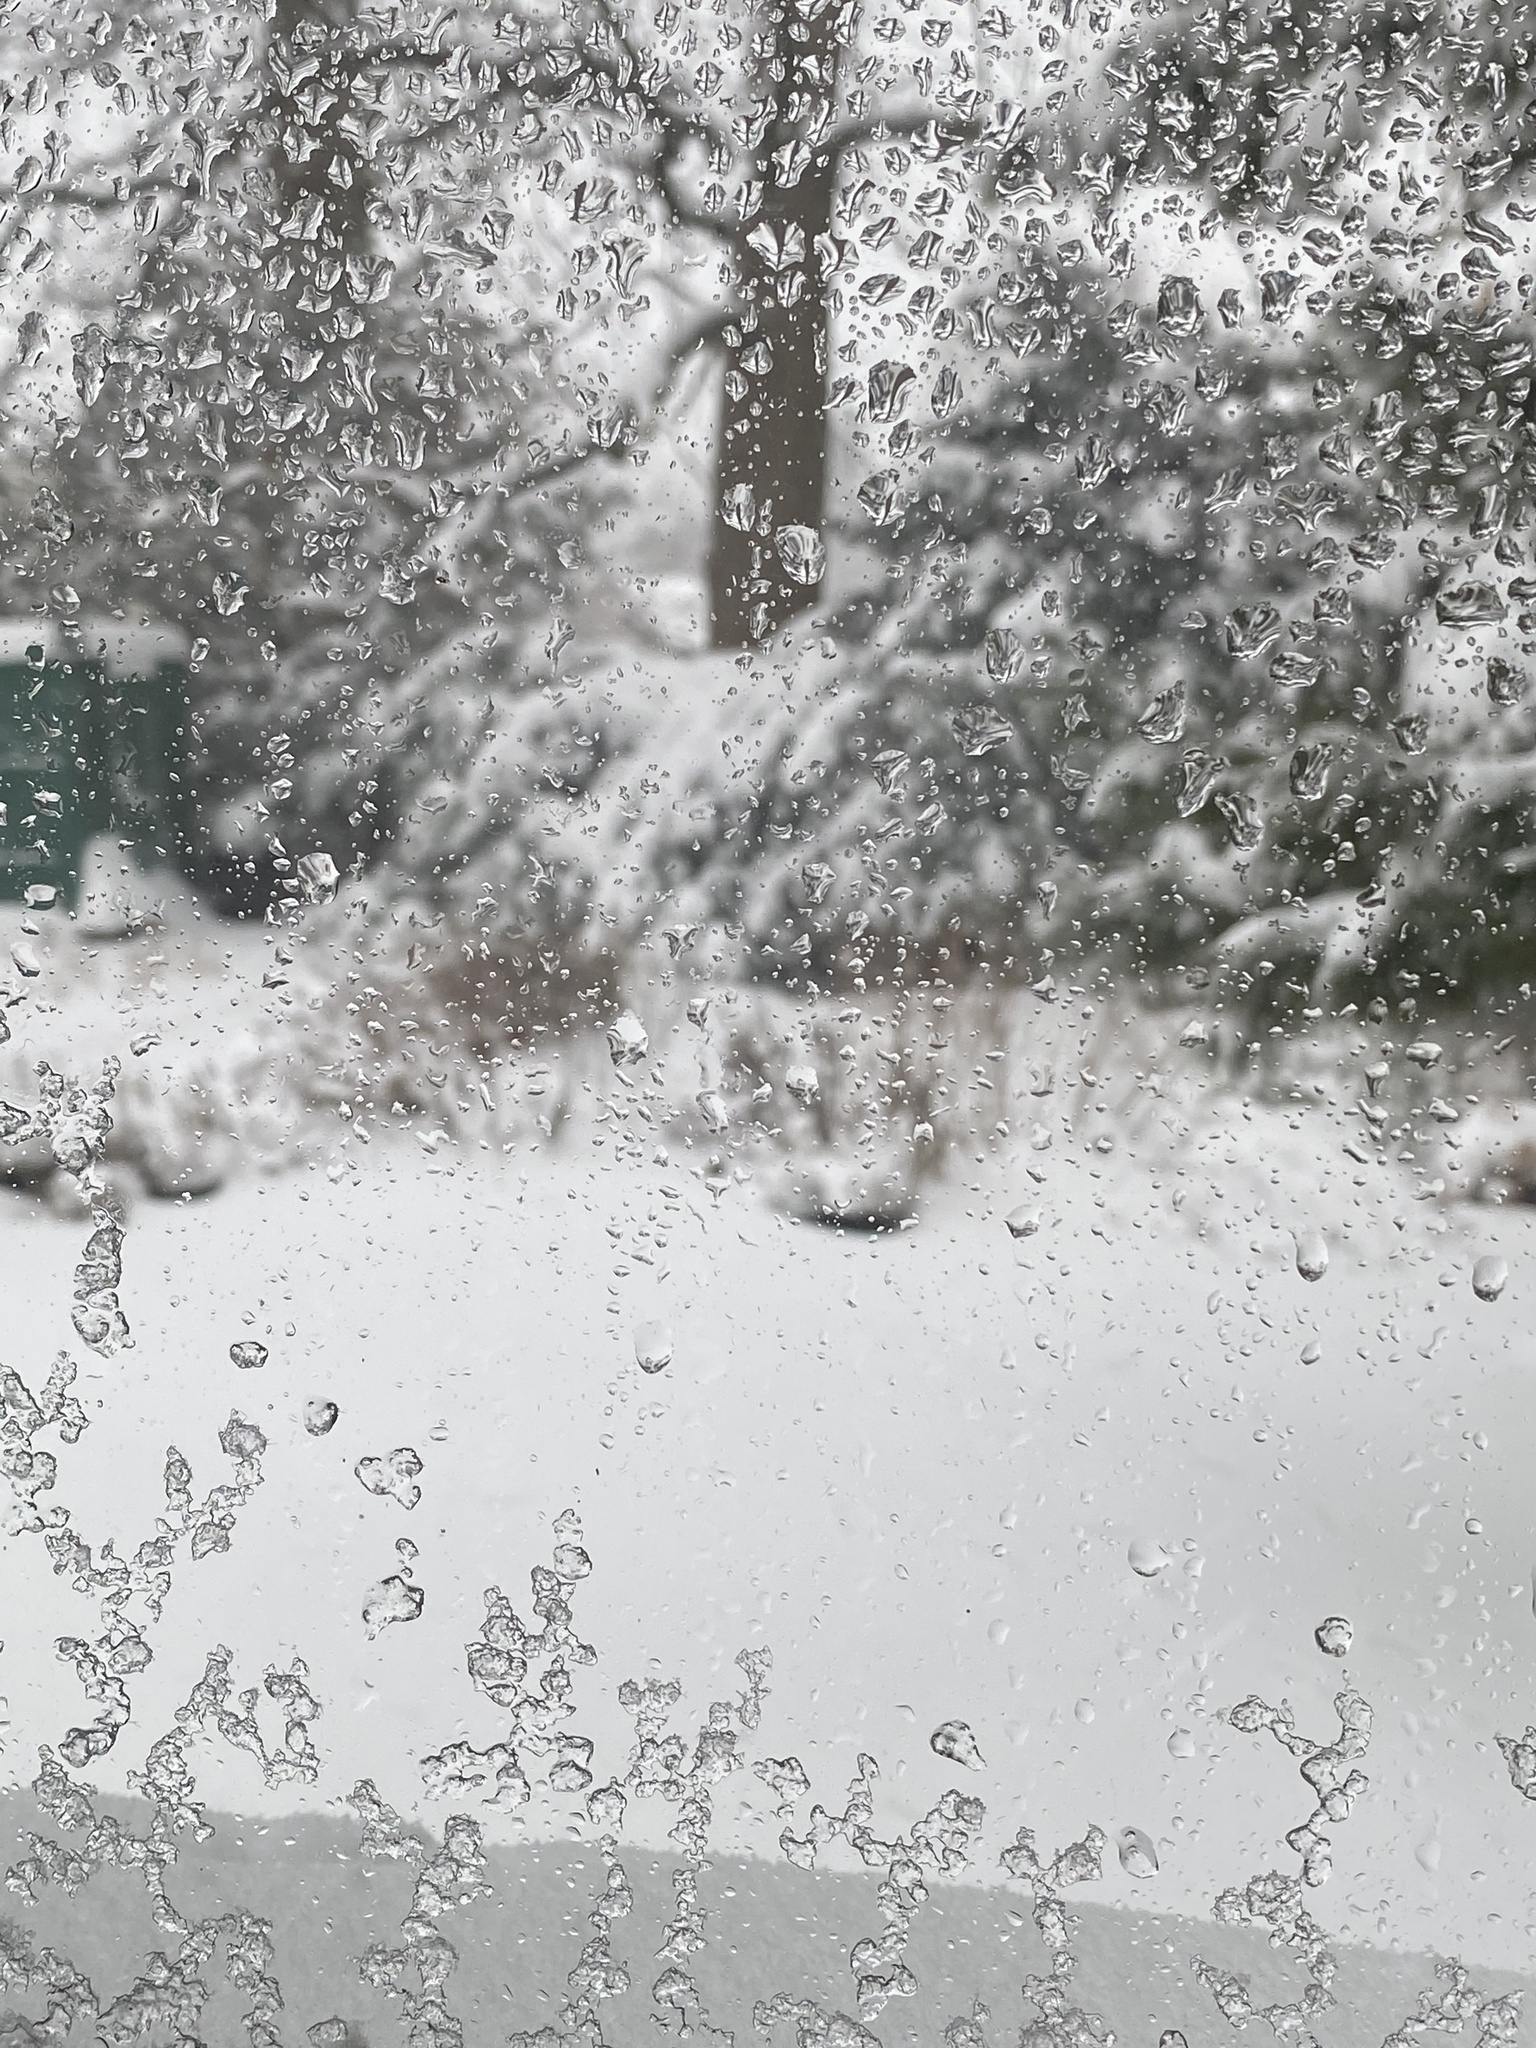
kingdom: Animalia
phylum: Chordata
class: Aves
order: Passeriformes
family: Passerellidae
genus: Junco
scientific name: Junco hyemalis
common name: Dark-eyed junco
